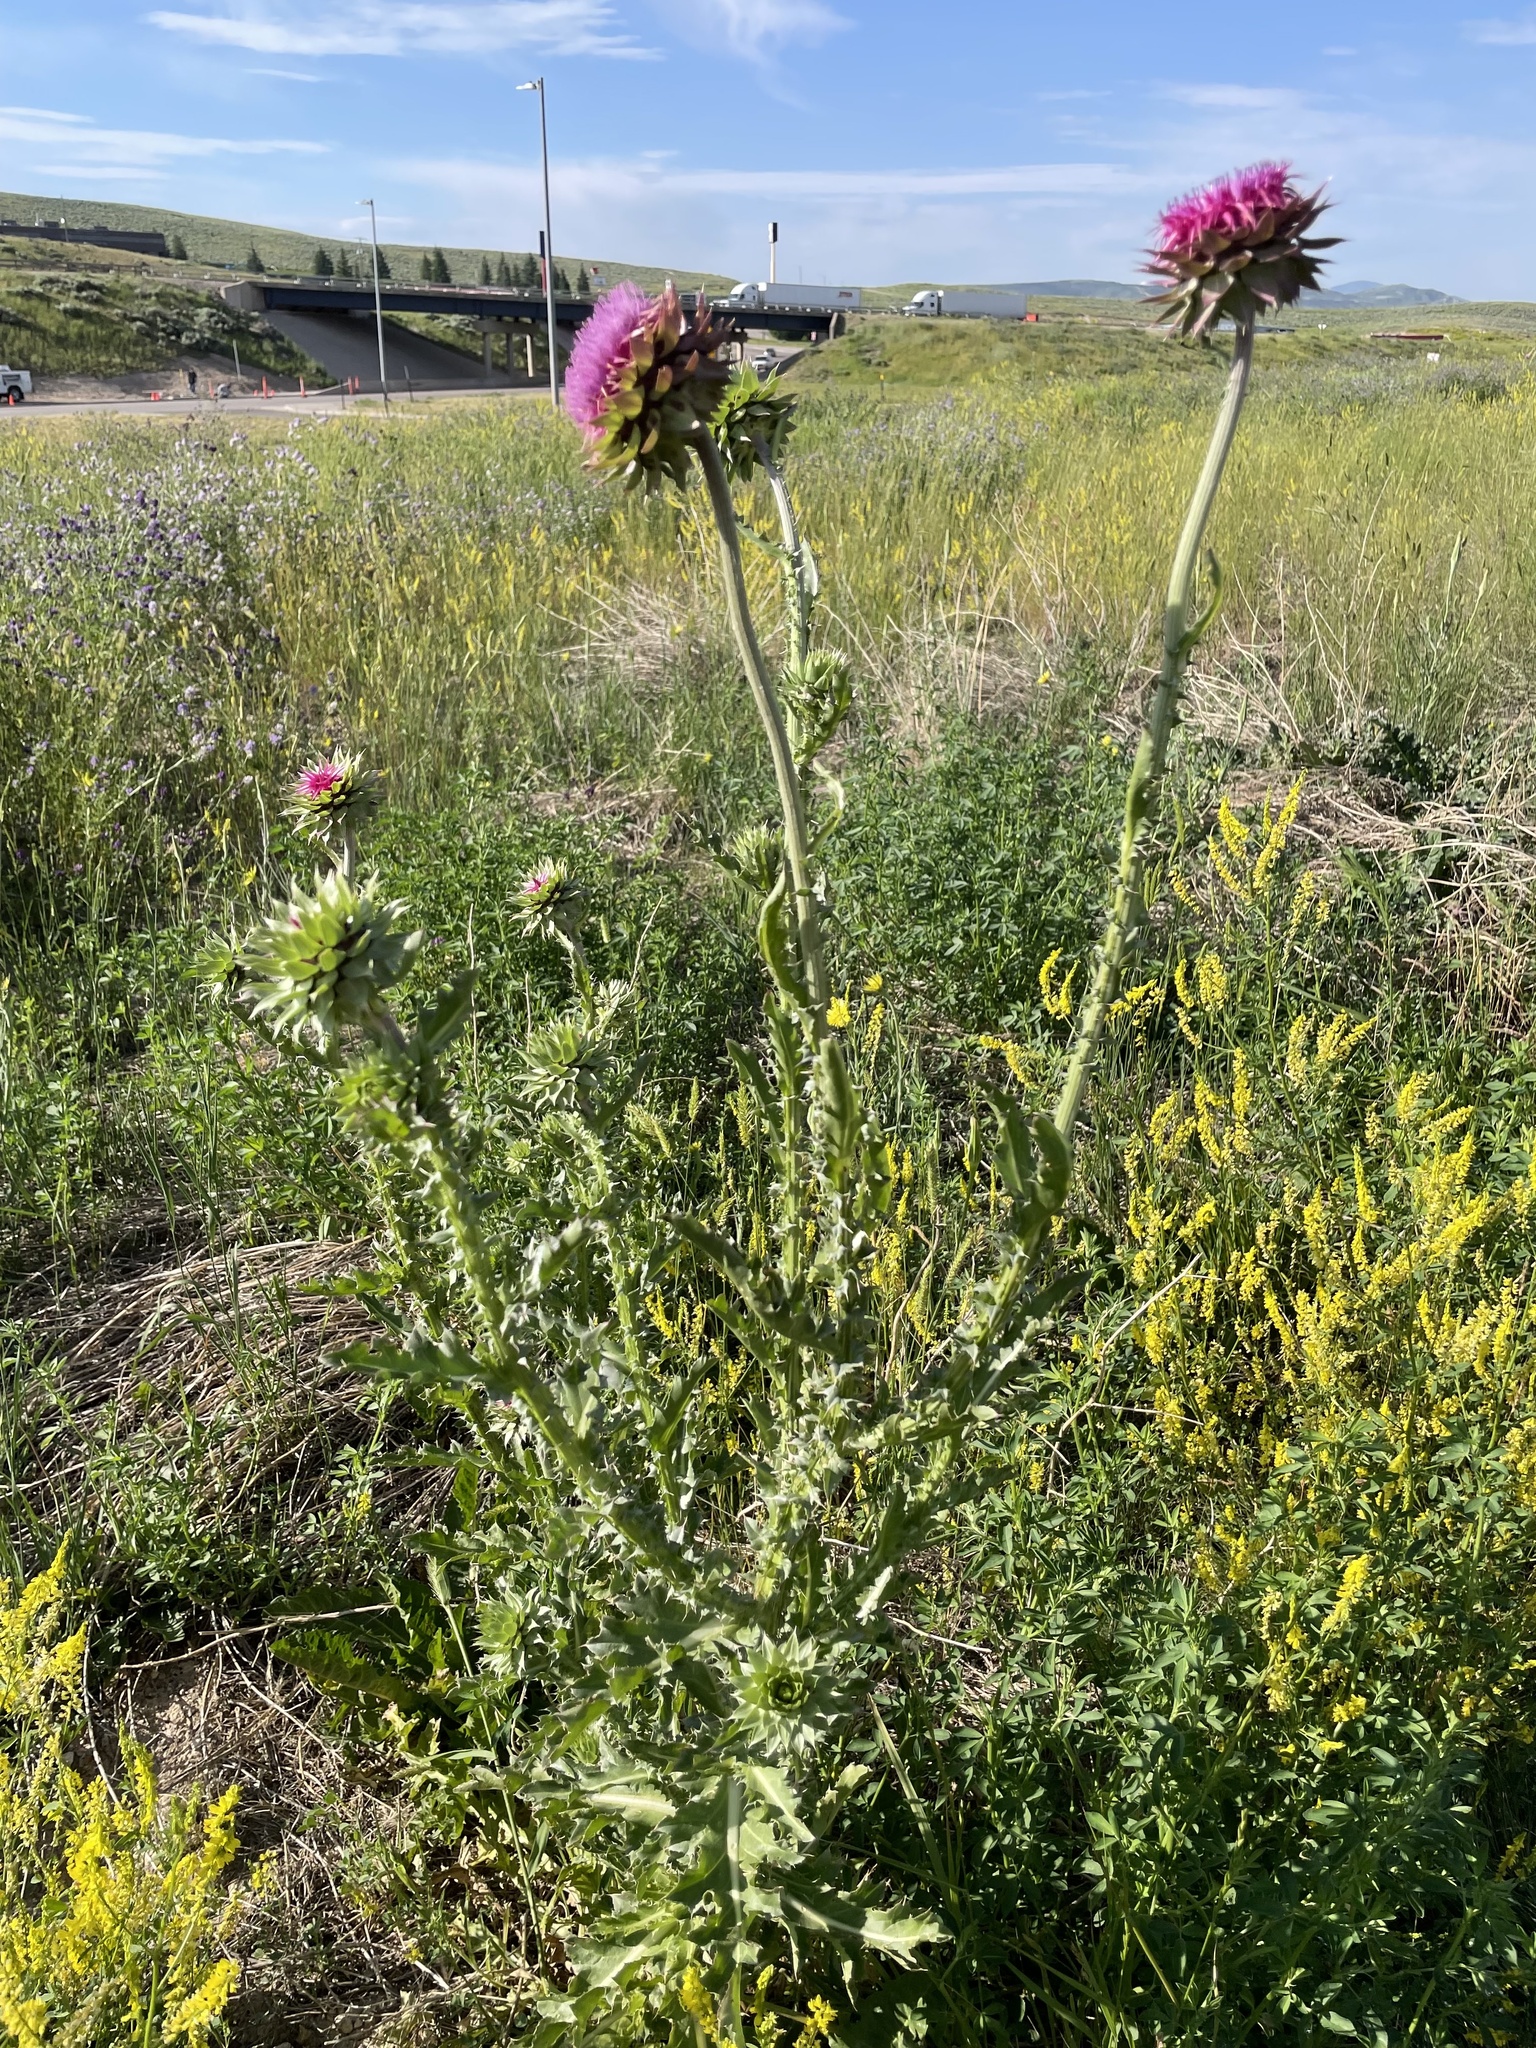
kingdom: Plantae
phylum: Tracheophyta
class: Magnoliopsida
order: Asterales
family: Asteraceae
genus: Carduus
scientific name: Carduus nutans
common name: Musk thistle
